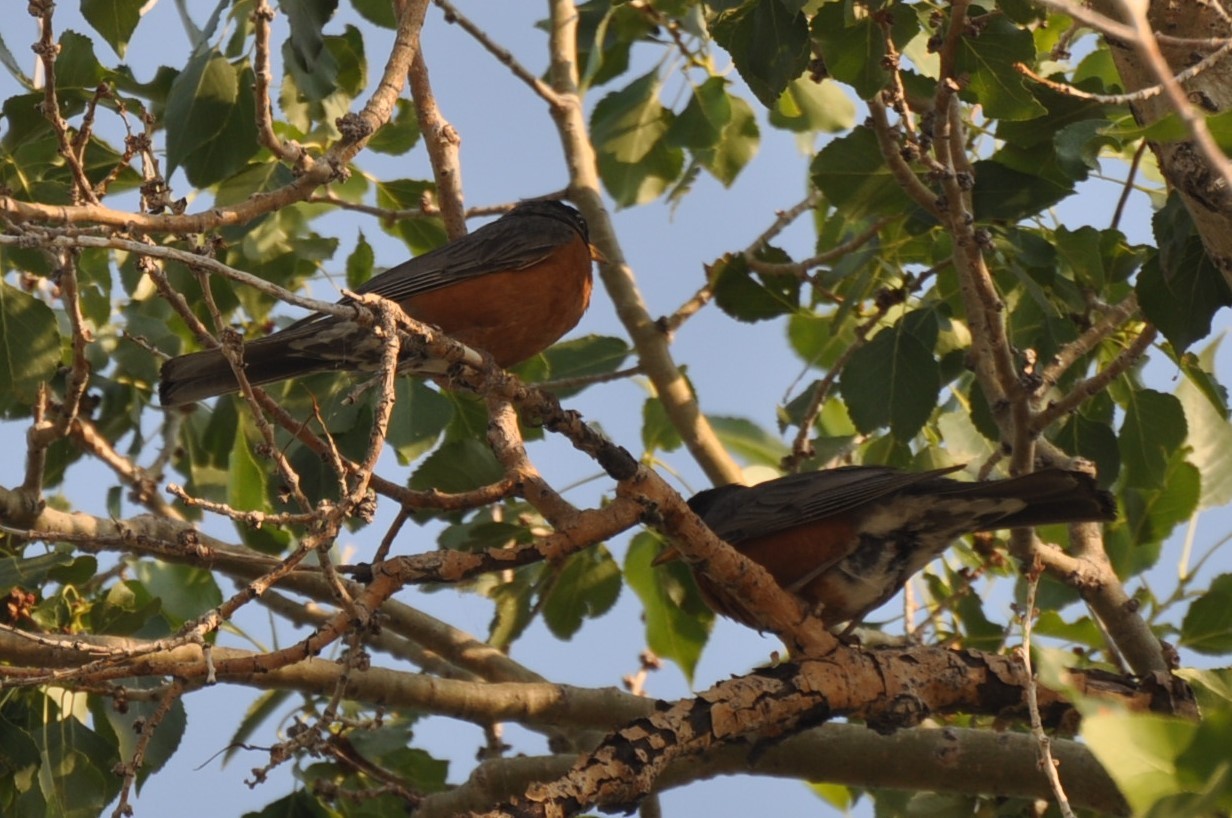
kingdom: Animalia
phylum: Chordata
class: Aves
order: Passeriformes
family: Turdidae
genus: Turdus
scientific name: Turdus migratorius
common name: American robin
